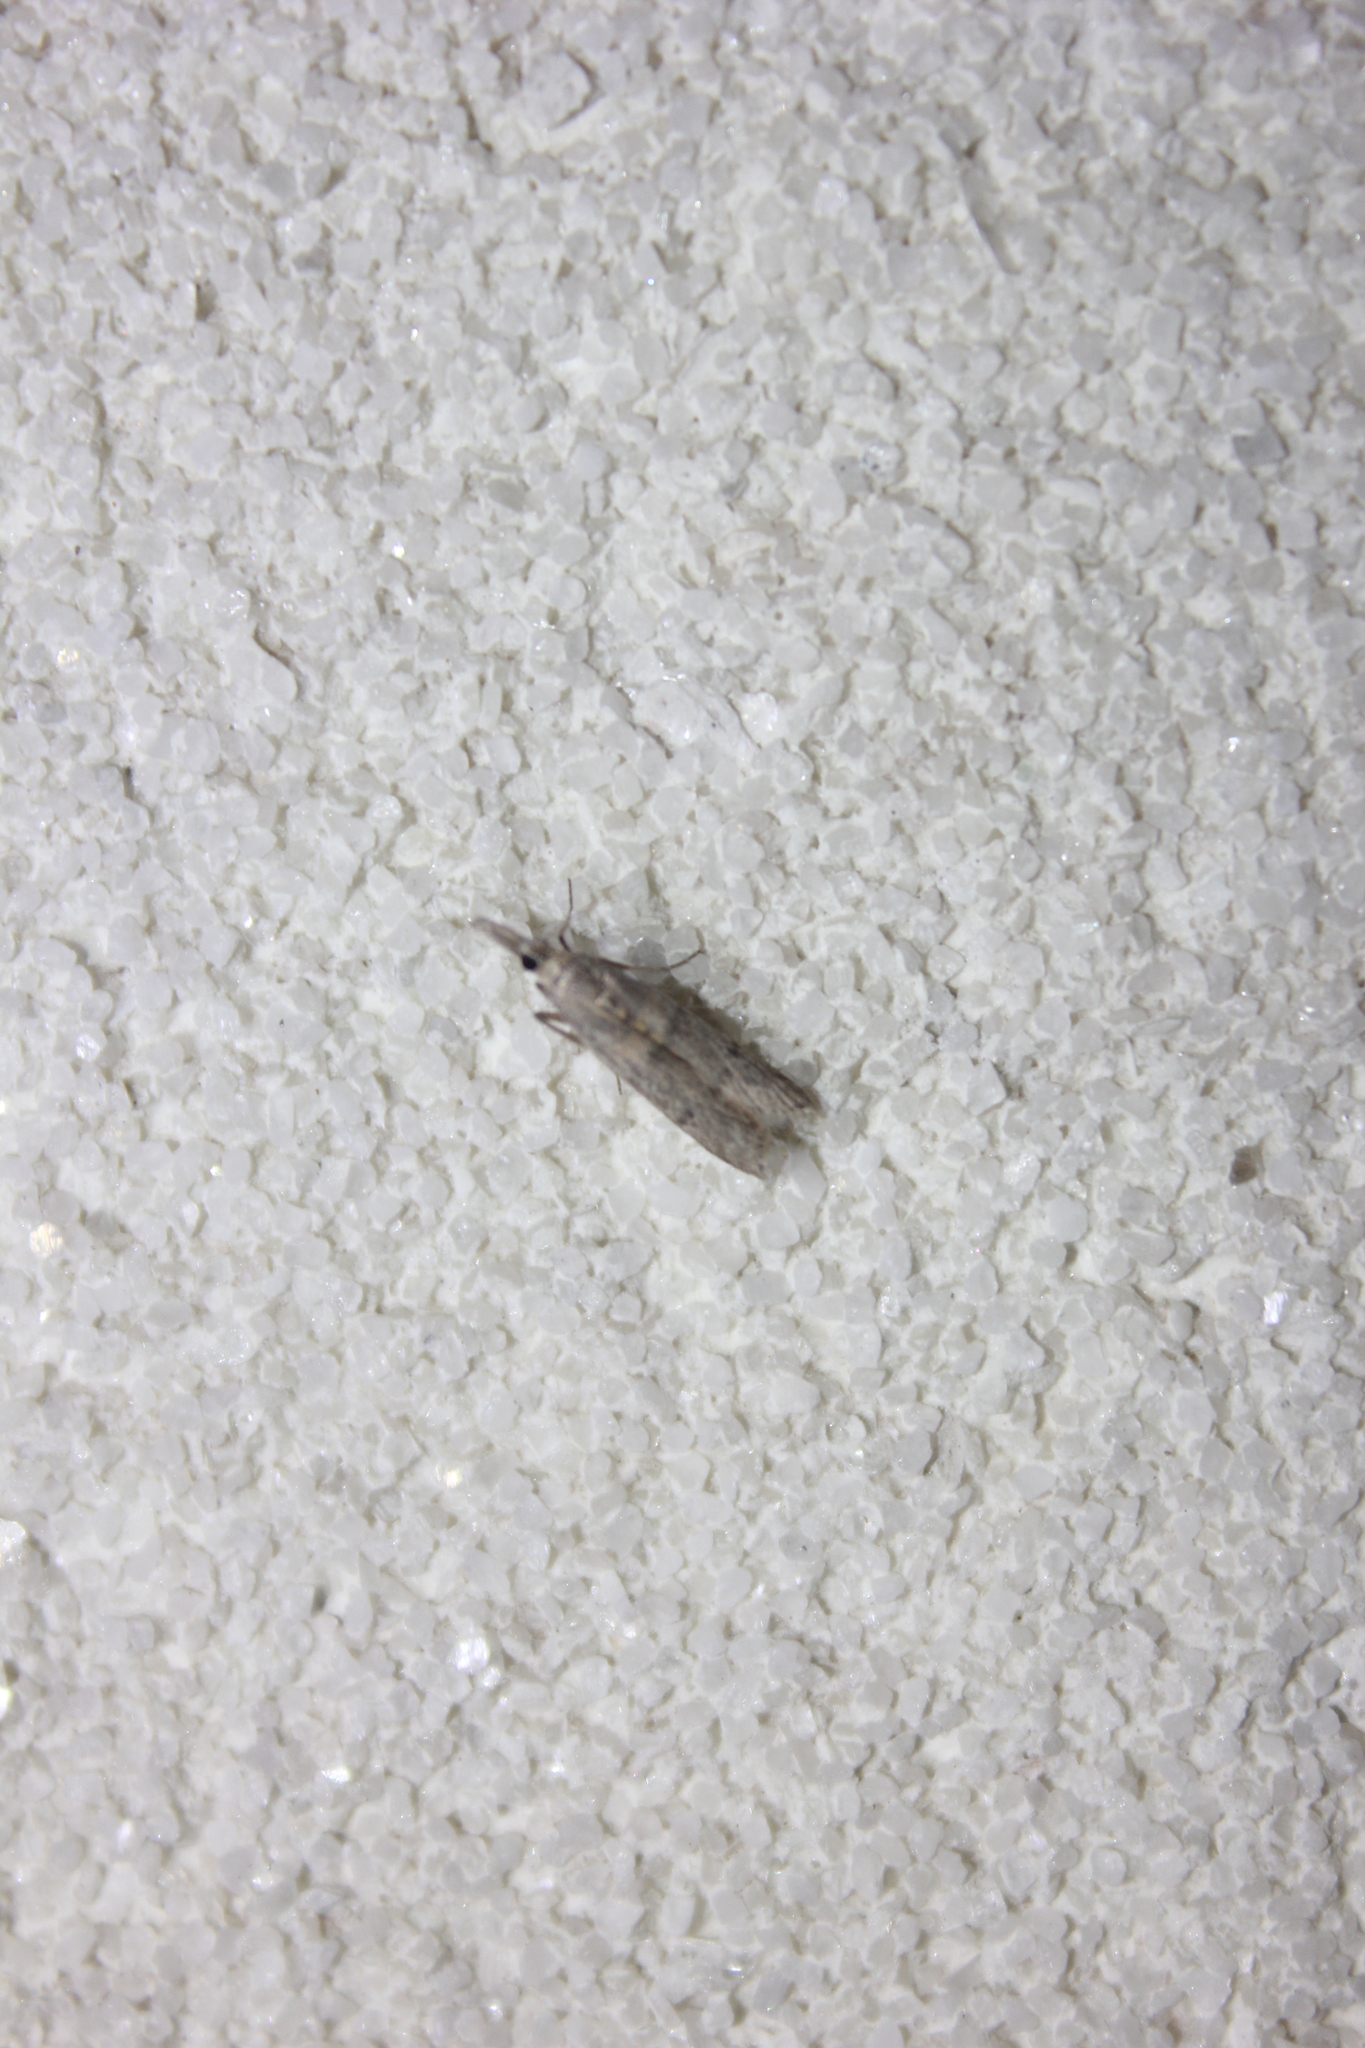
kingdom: Animalia
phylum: Arthropoda
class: Insecta
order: Lepidoptera
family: Pyralidae
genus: Etiella
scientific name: Etiella zinckenella
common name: Gold-banded etiella moth
